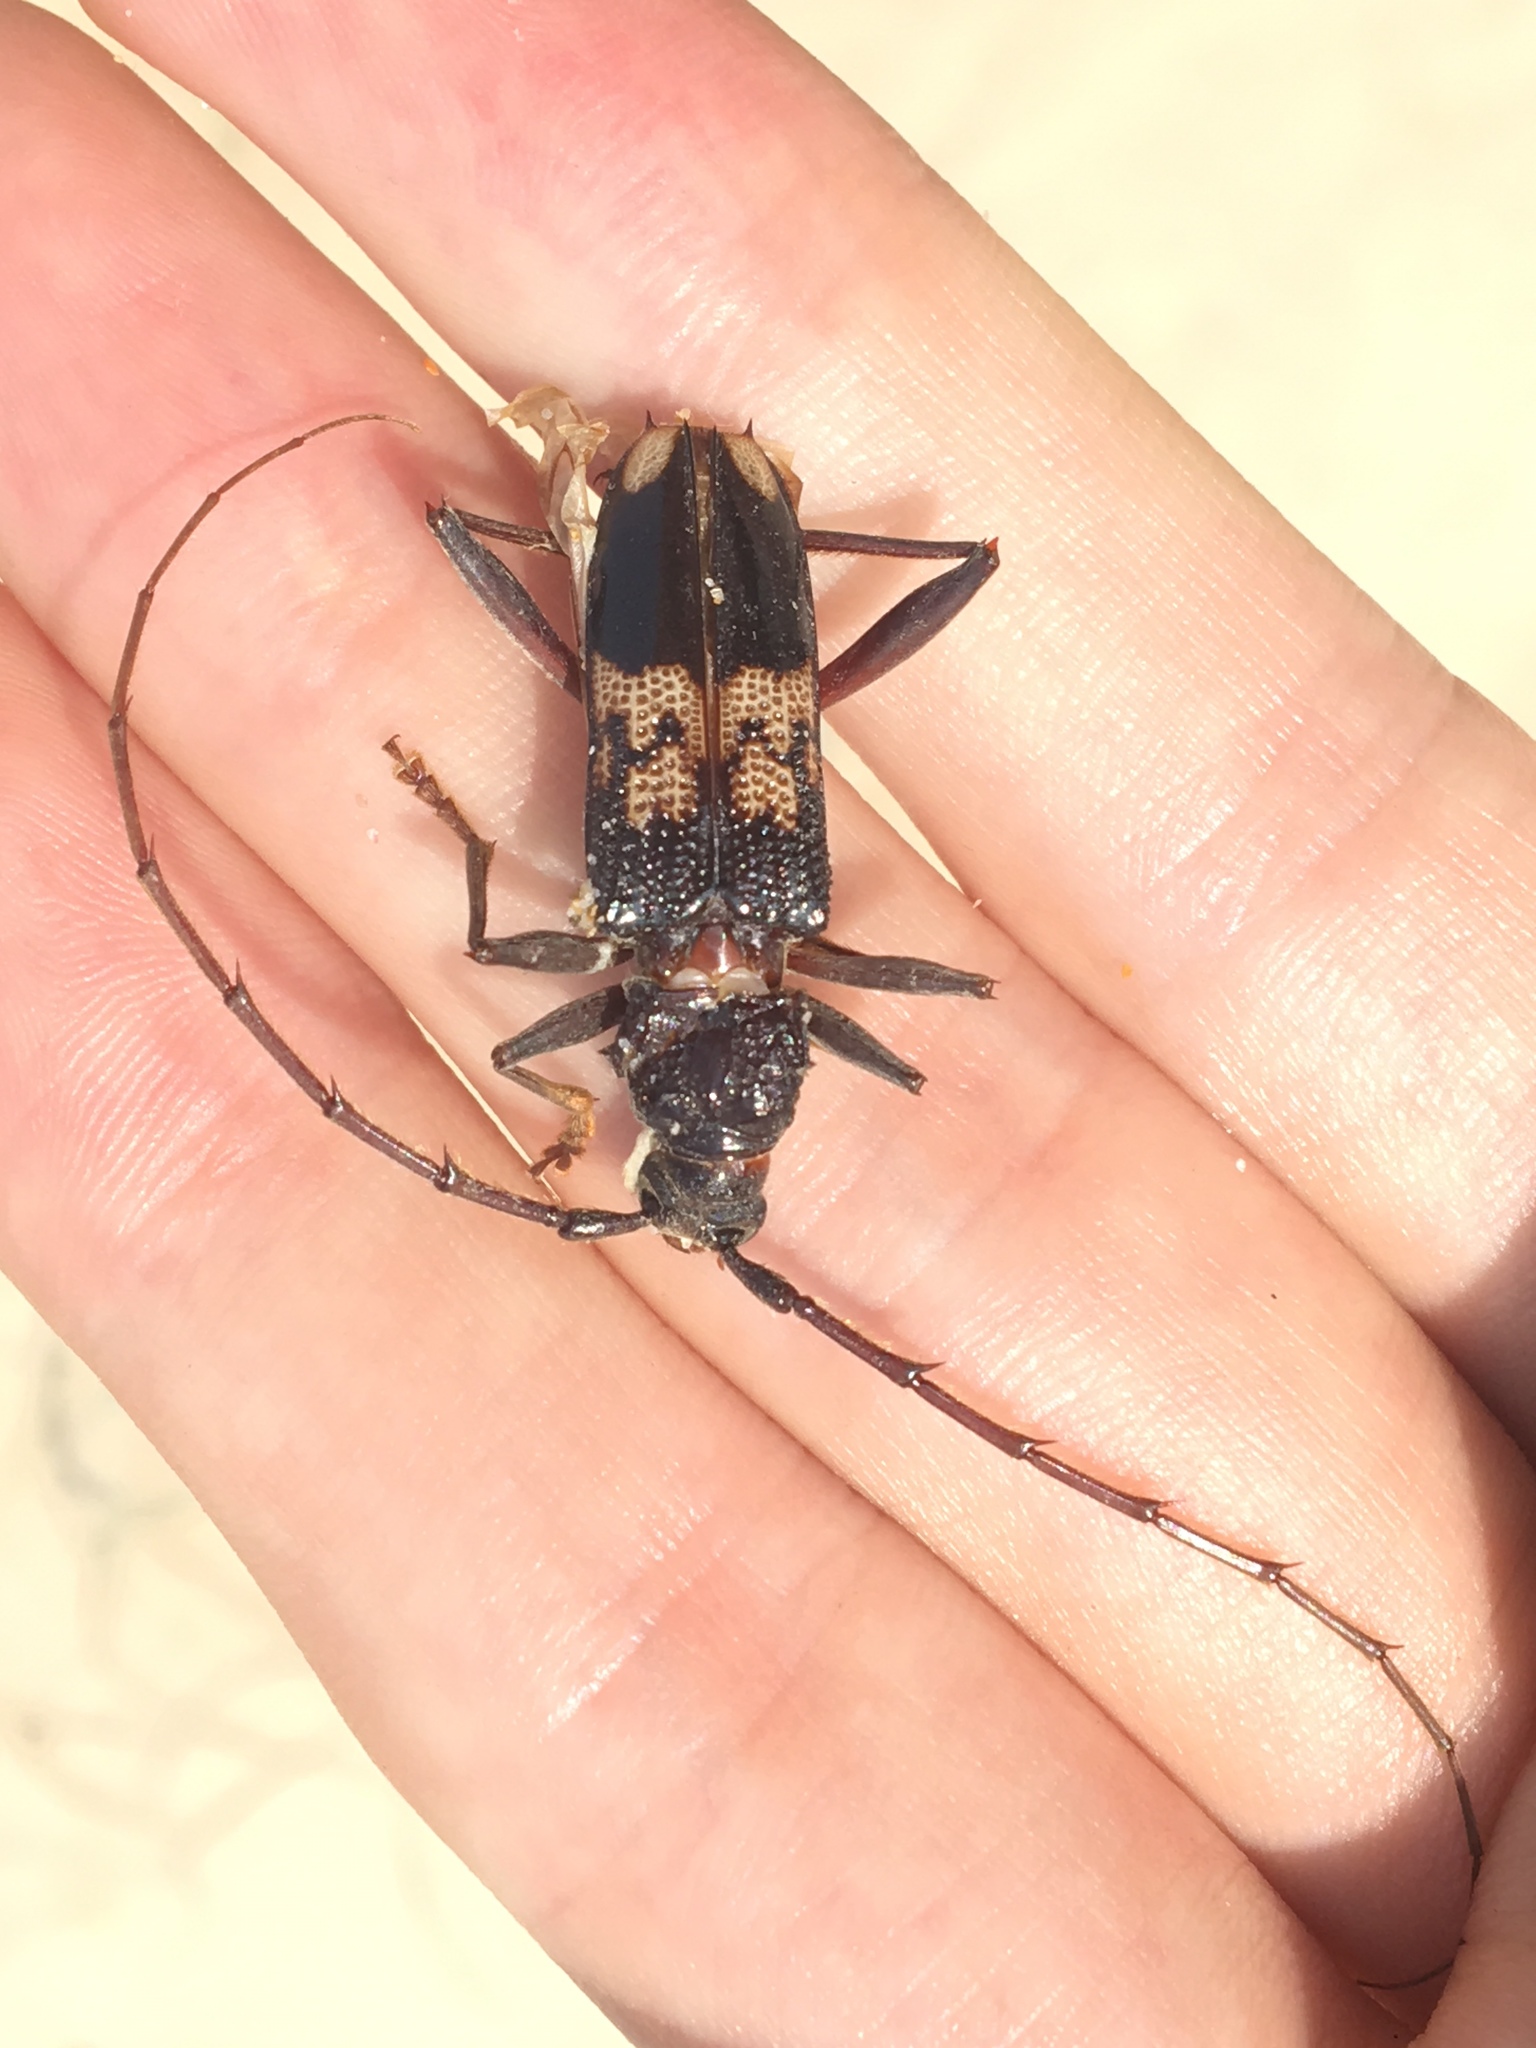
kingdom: Animalia
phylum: Arthropoda
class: Insecta
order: Coleoptera
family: Cerambycidae
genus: Phoracantha
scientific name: Phoracantha semipunctata
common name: Eucalyptus longhorn borer
